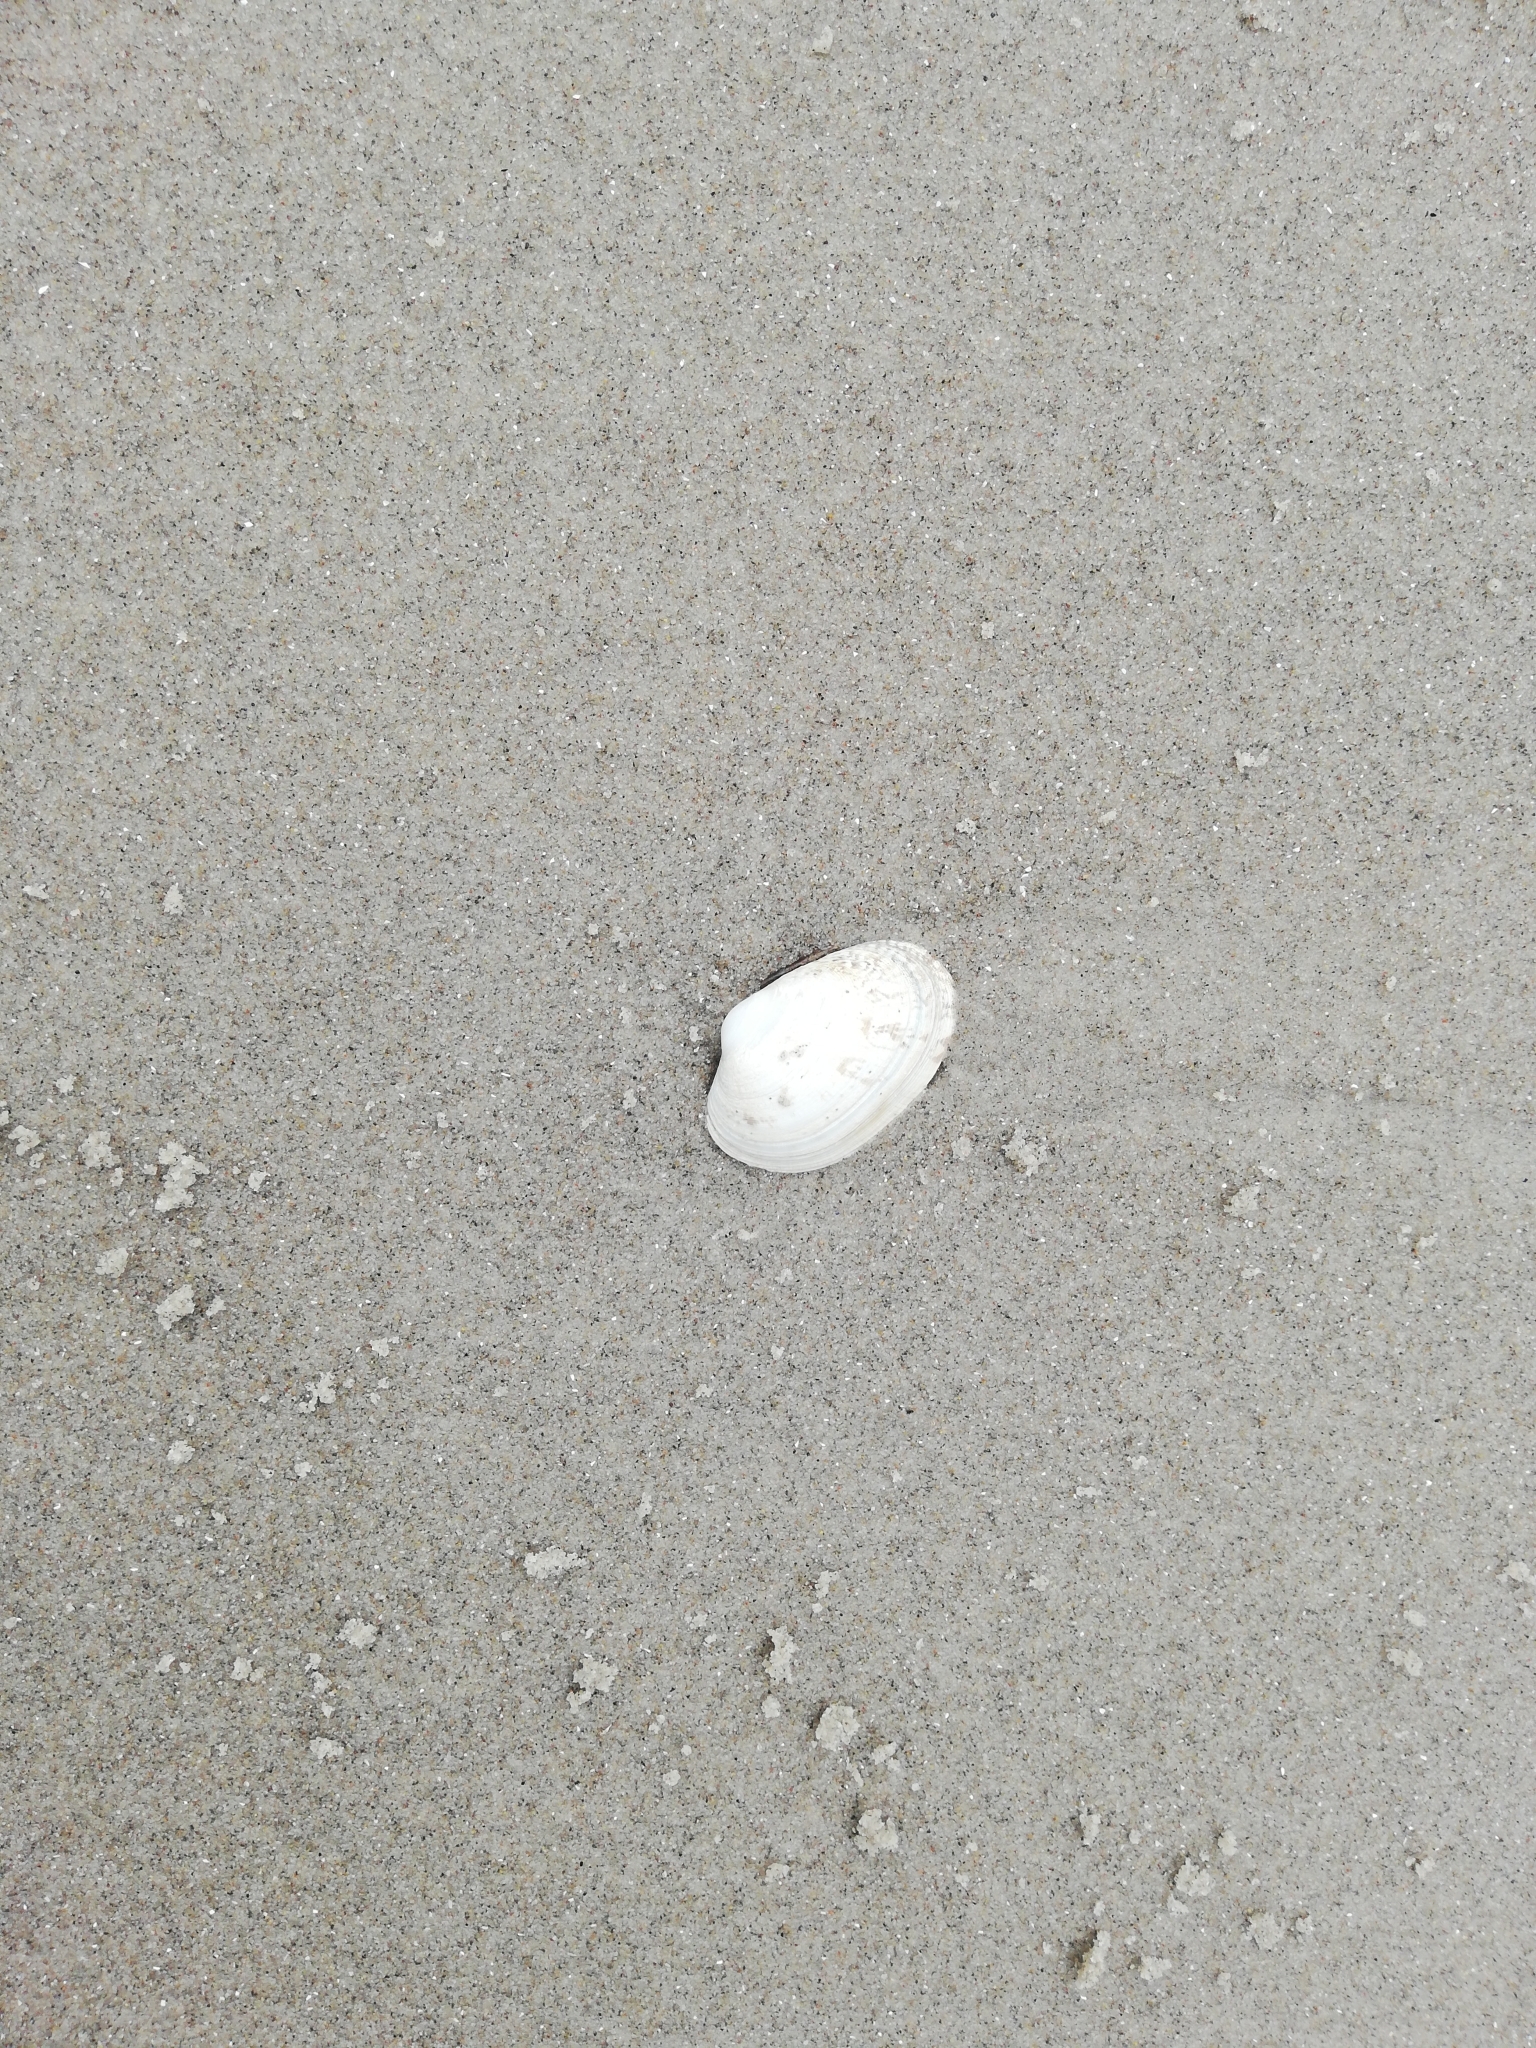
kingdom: Animalia
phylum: Mollusca
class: Bivalvia
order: Venerida
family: Veneridae
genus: Venerupis
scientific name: Venerupis corrugata
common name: Pullet carpet shell
